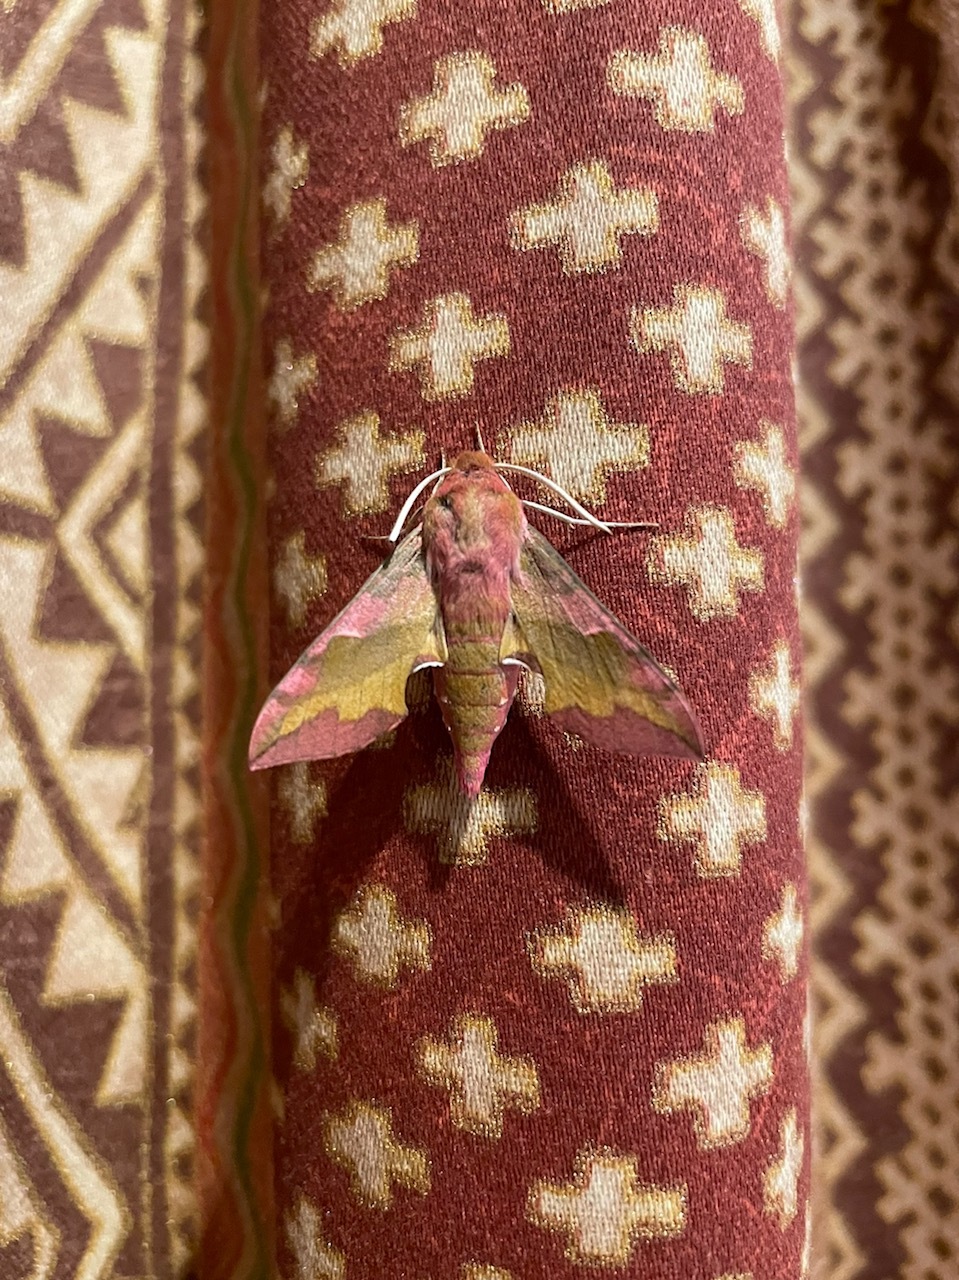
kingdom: Animalia
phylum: Arthropoda
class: Insecta
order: Lepidoptera
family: Sphingidae
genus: Deilephila
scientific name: Deilephila porcellus
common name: Small elephant hawk-moth
